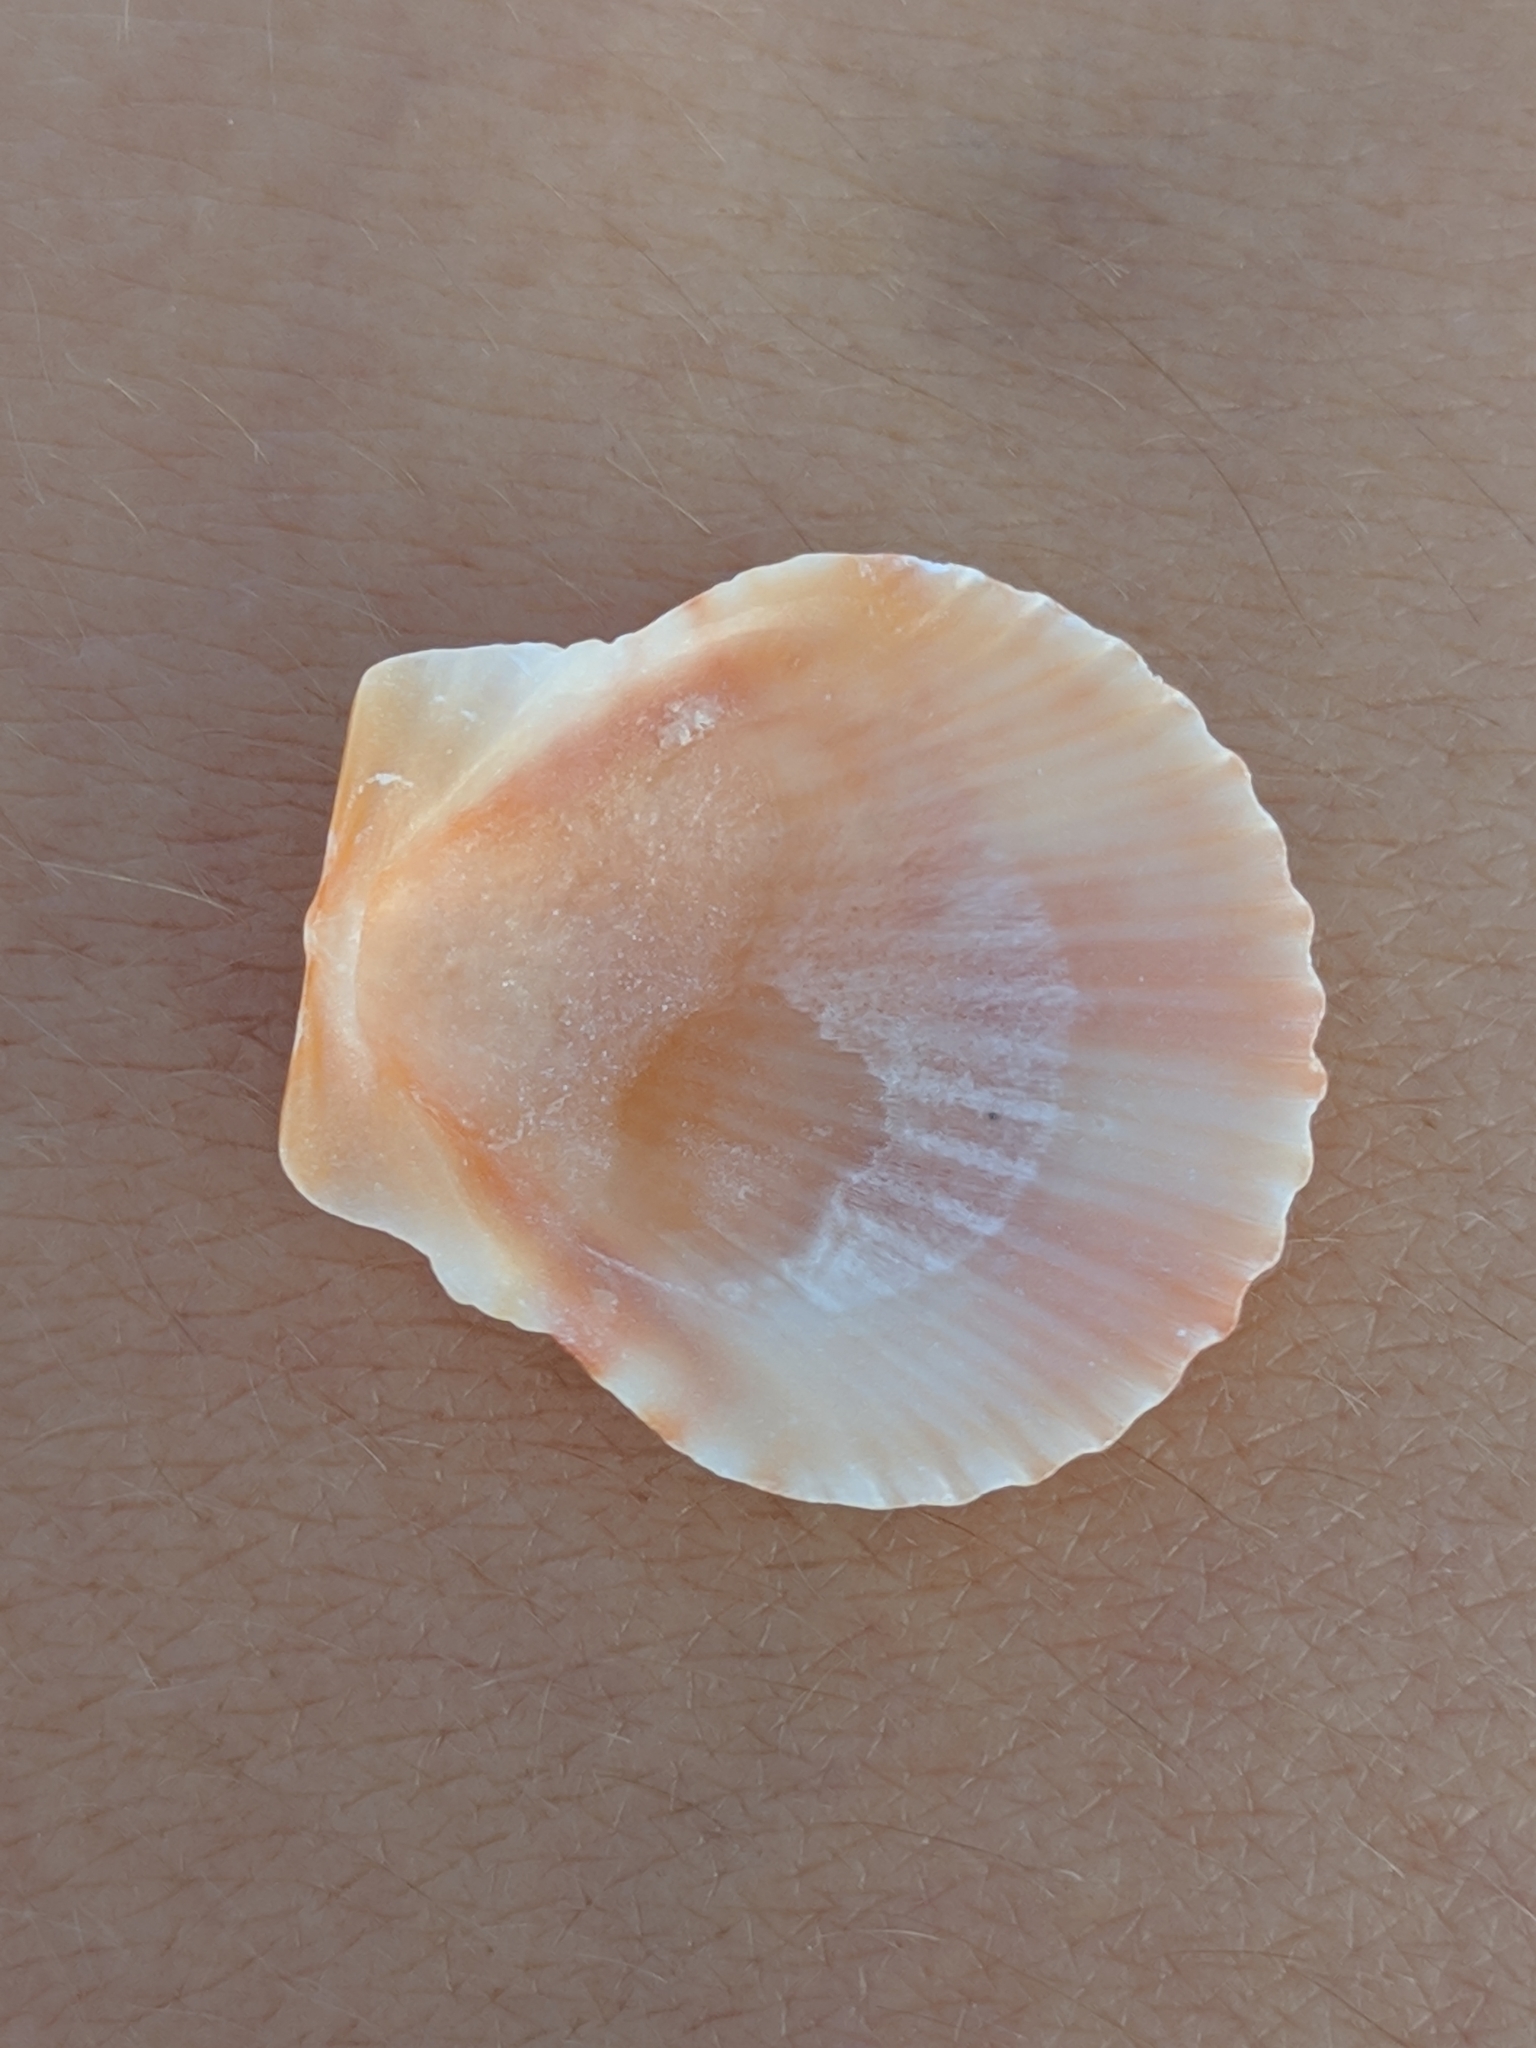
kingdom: Animalia
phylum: Mollusca
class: Bivalvia
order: Pectinida
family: Pectinidae
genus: Argopecten
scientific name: Argopecten gibbus
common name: Atlantic calico scallop
